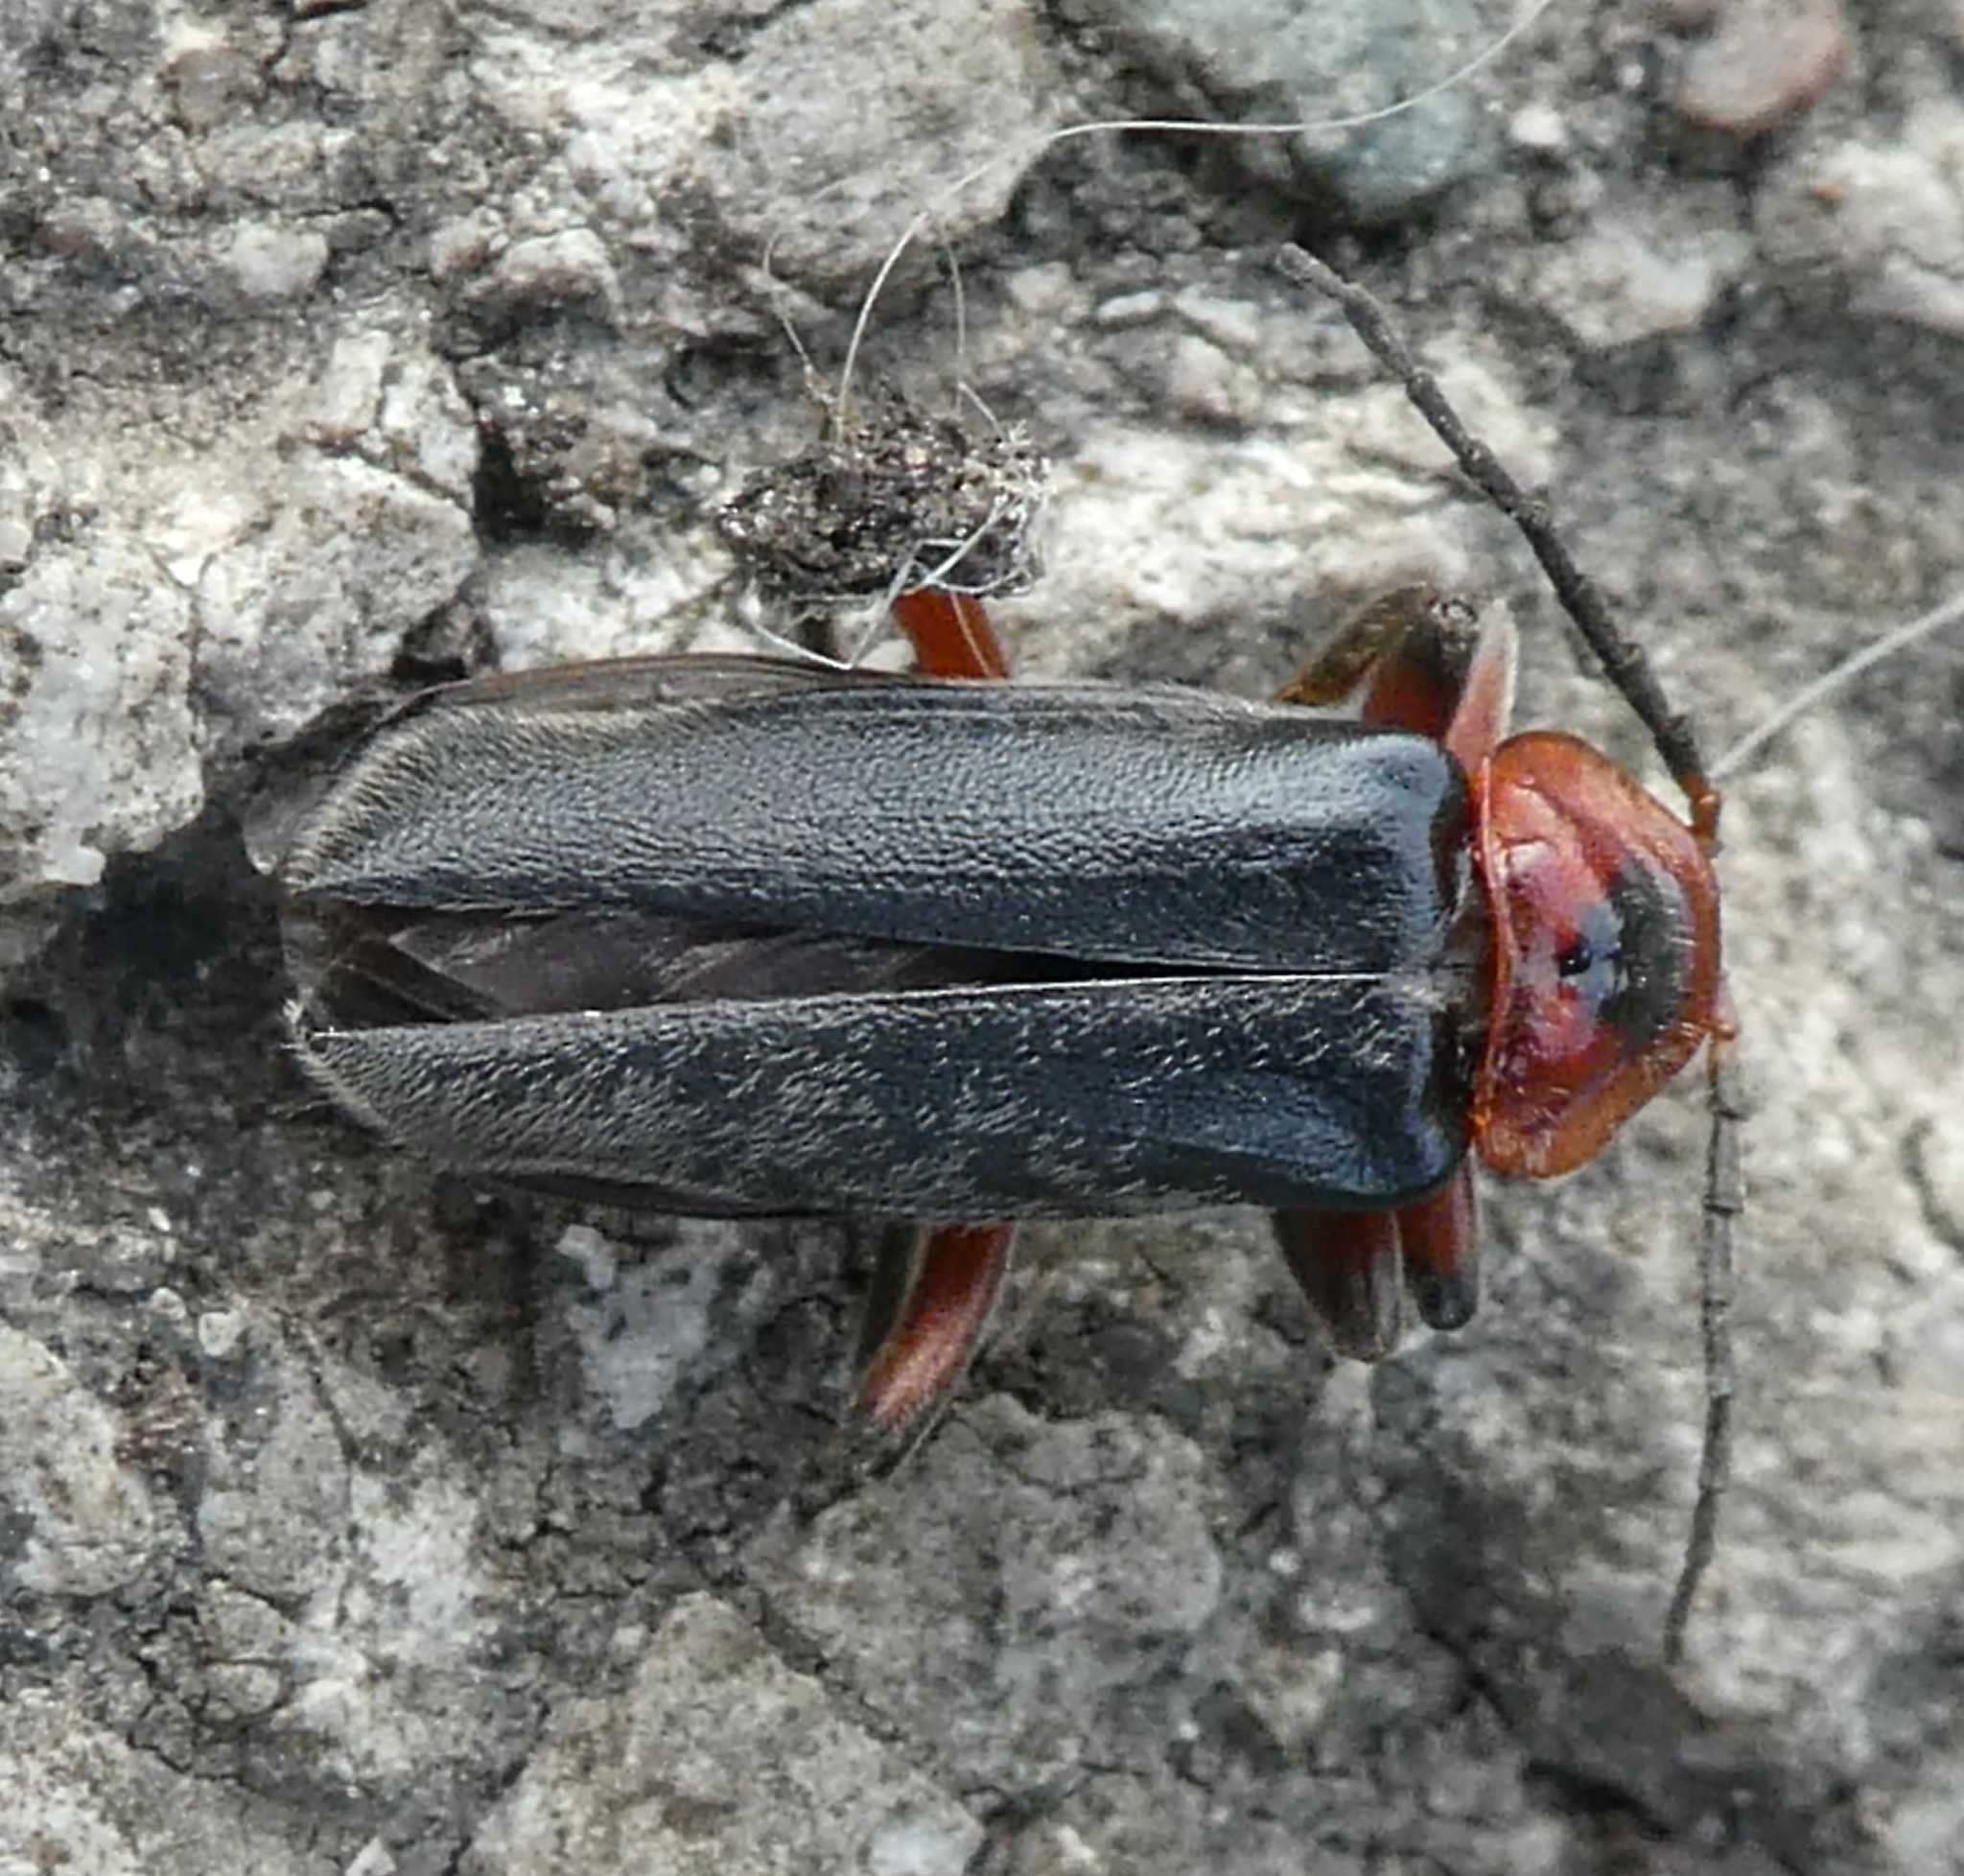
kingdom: Animalia
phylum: Arthropoda
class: Insecta
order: Coleoptera
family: Cantharidae
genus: Cantharis
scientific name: Cantharis rustica
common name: Soldier beetle
